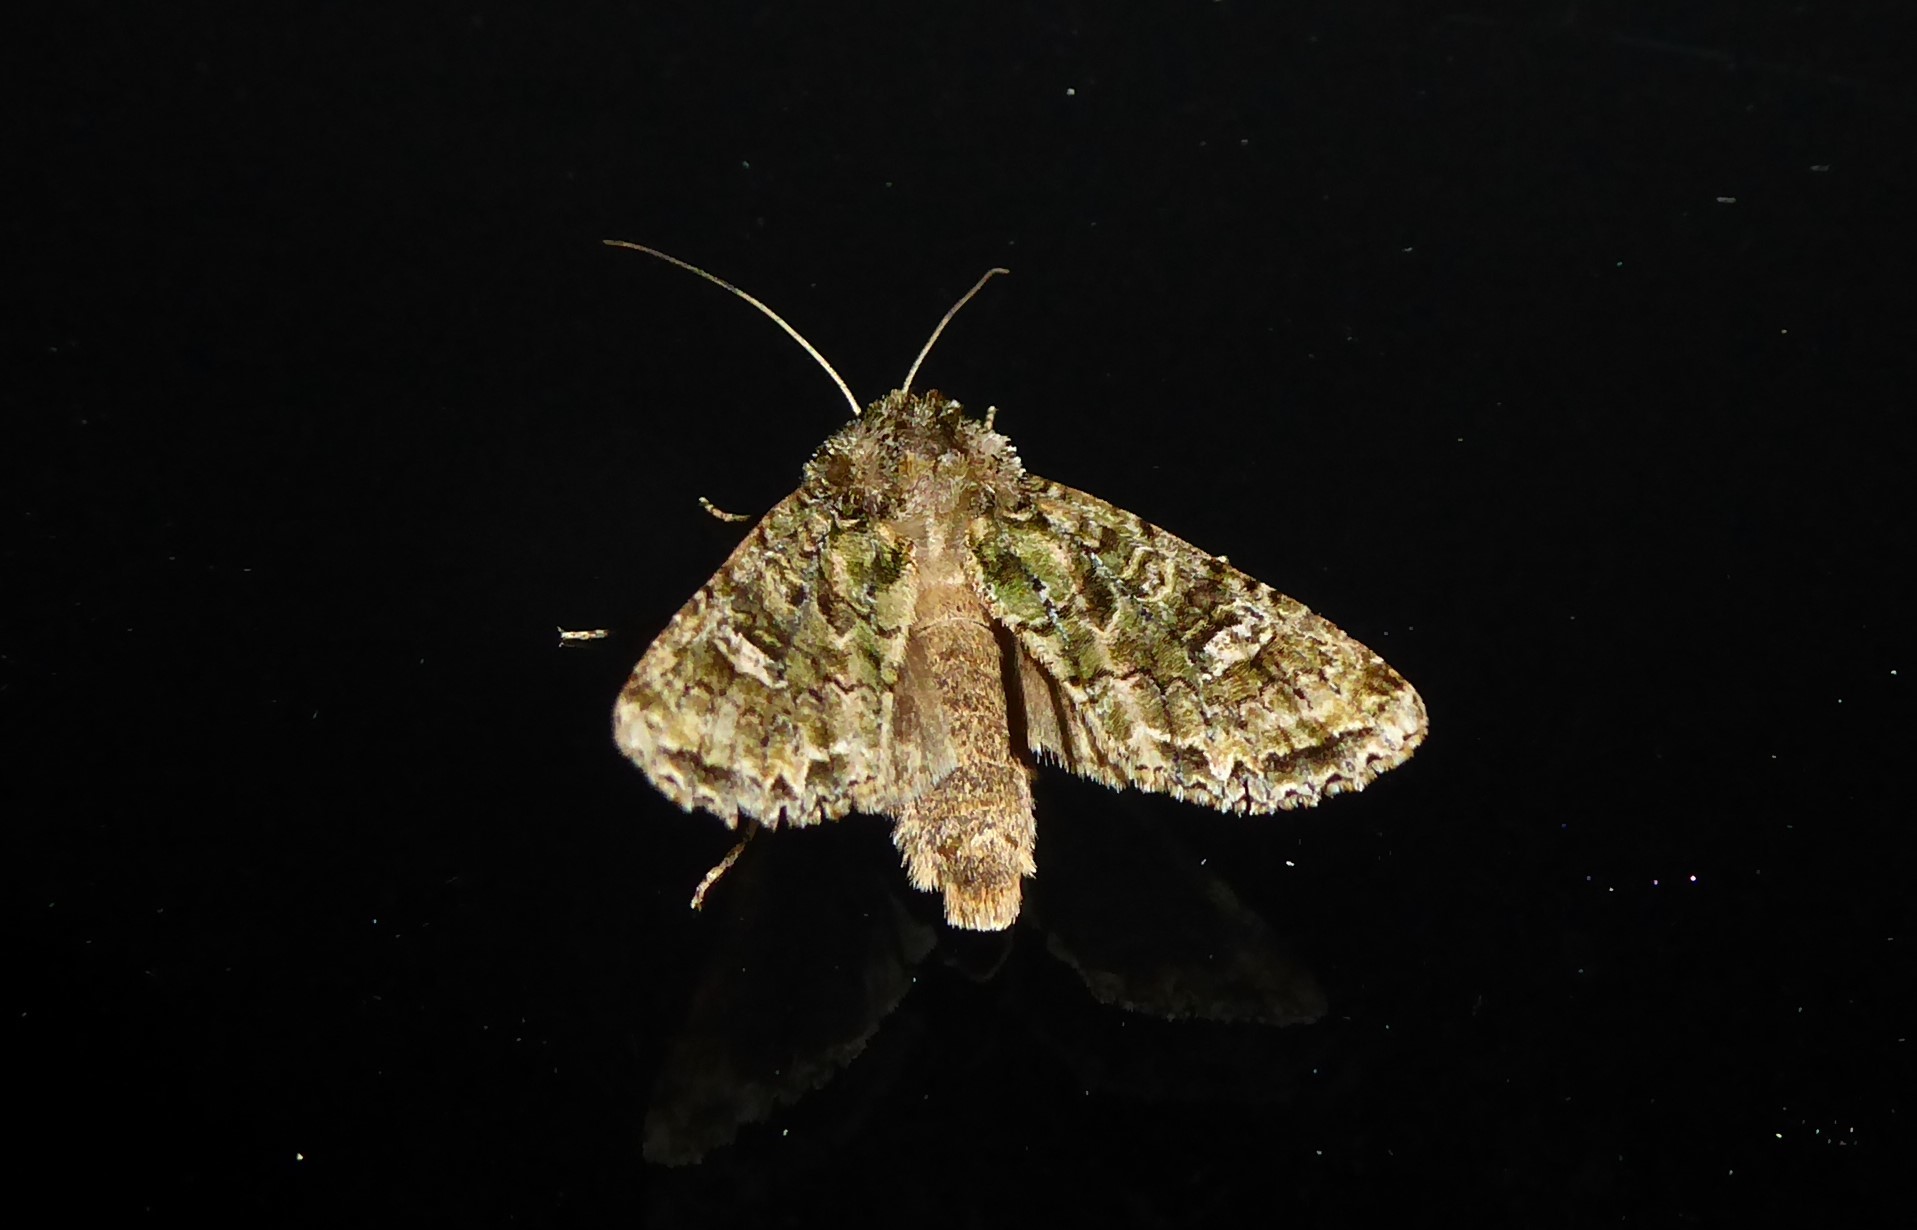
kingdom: Animalia
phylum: Arthropoda
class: Insecta
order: Lepidoptera
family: Noctuidae
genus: Ichneutica
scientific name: Ichneutica
